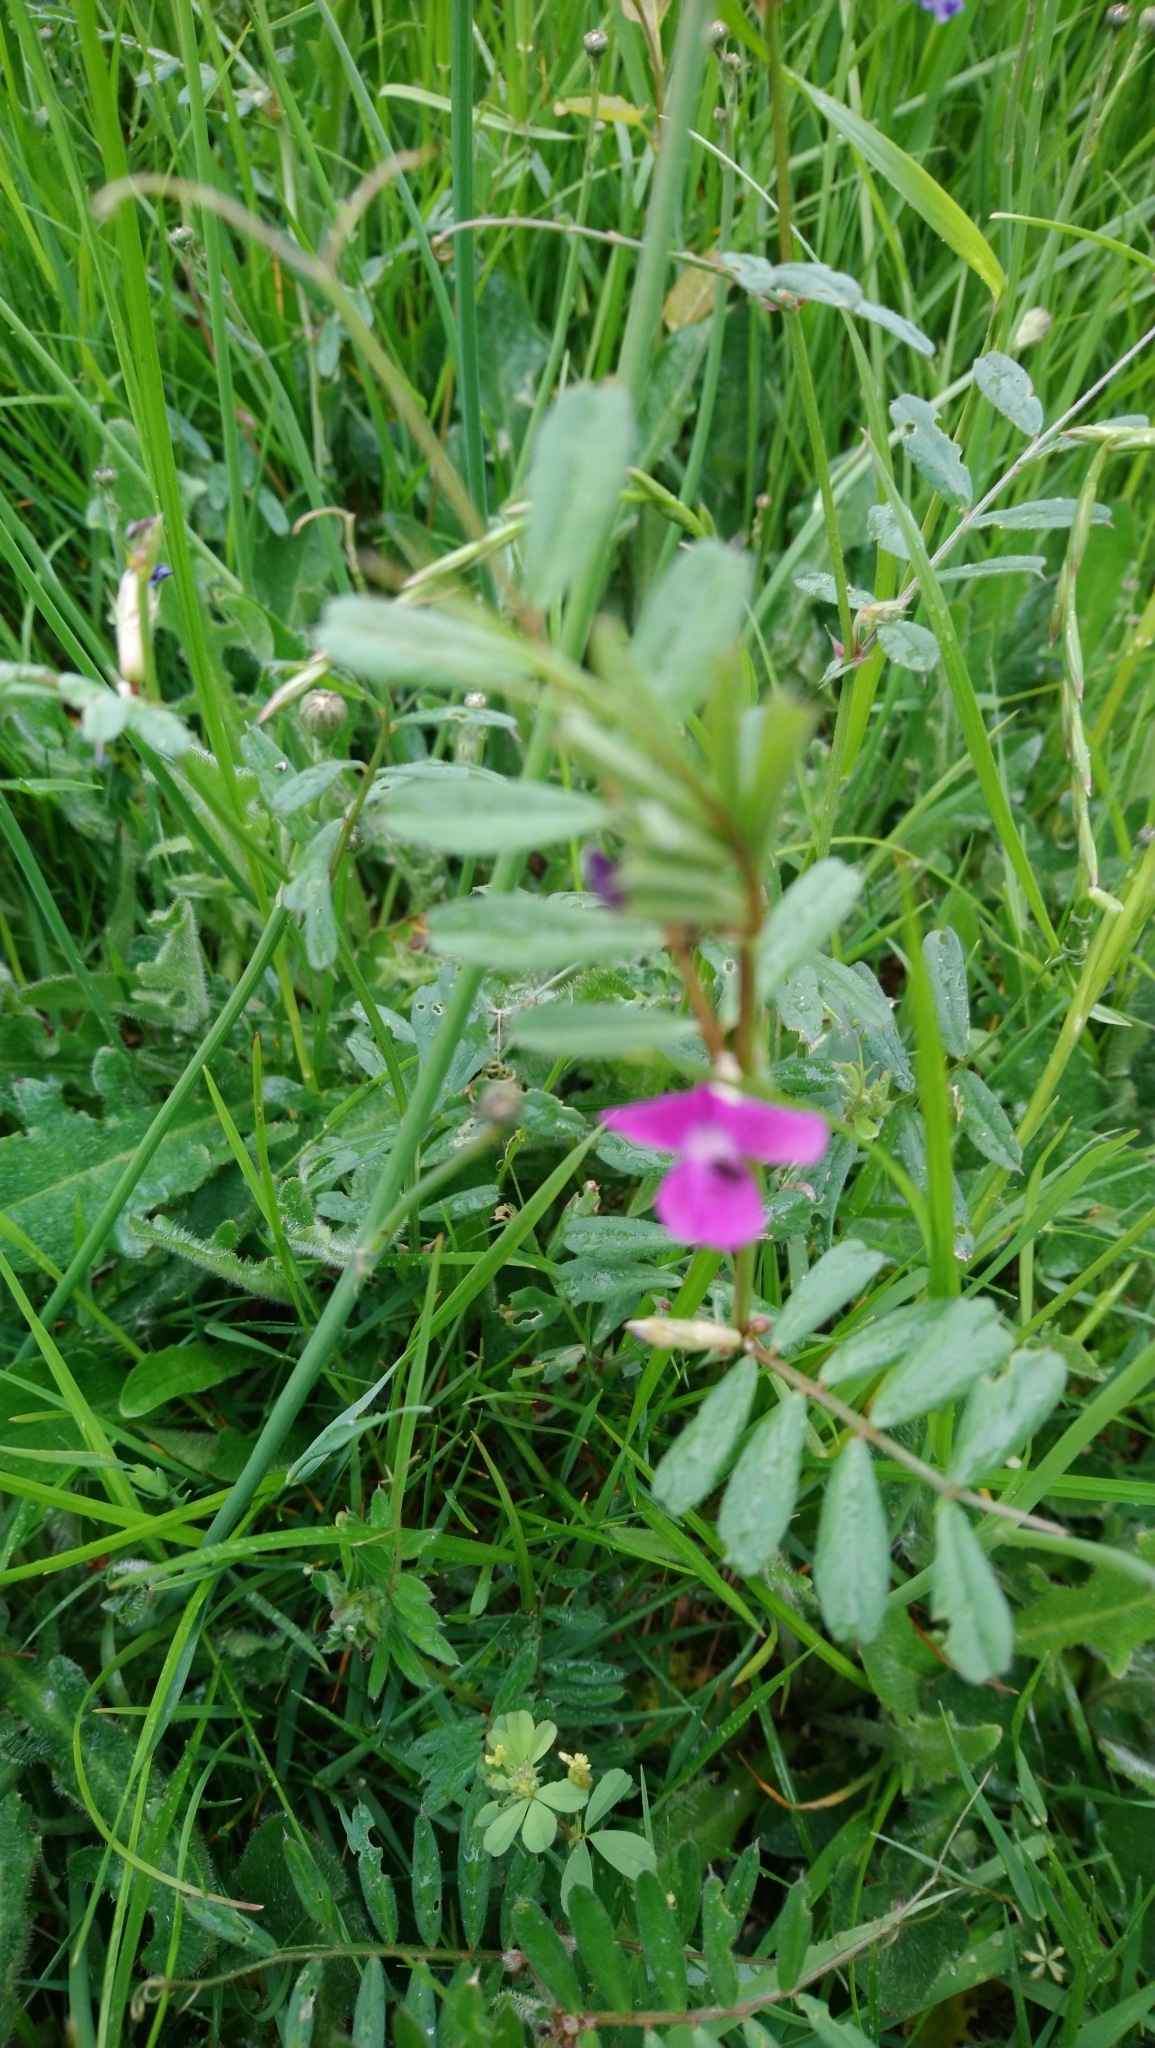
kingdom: Plantae
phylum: Tracheophyta
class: Magnoliopsida
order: Fabales
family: Fabaceae
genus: Vicia
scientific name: Vicia sativa
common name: Garden vetch
